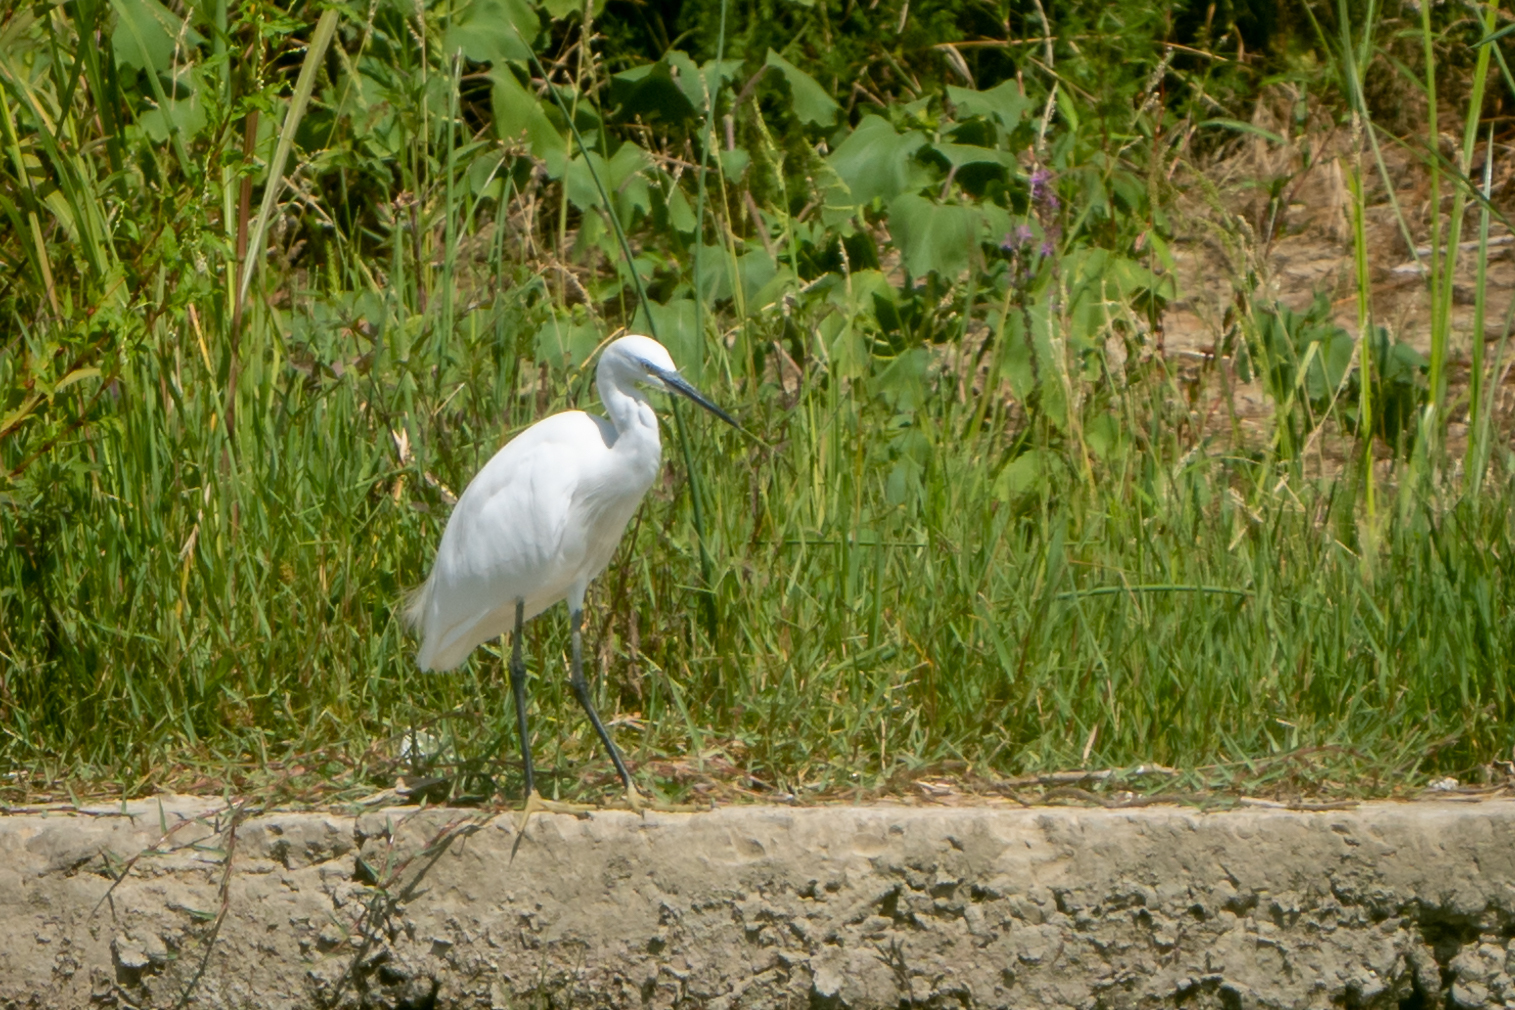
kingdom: Animalia
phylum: Chordata
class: Aves
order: Pelecaniformes
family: Ardeidae
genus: Egretta
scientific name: Egretta garzetta
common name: Little egret
